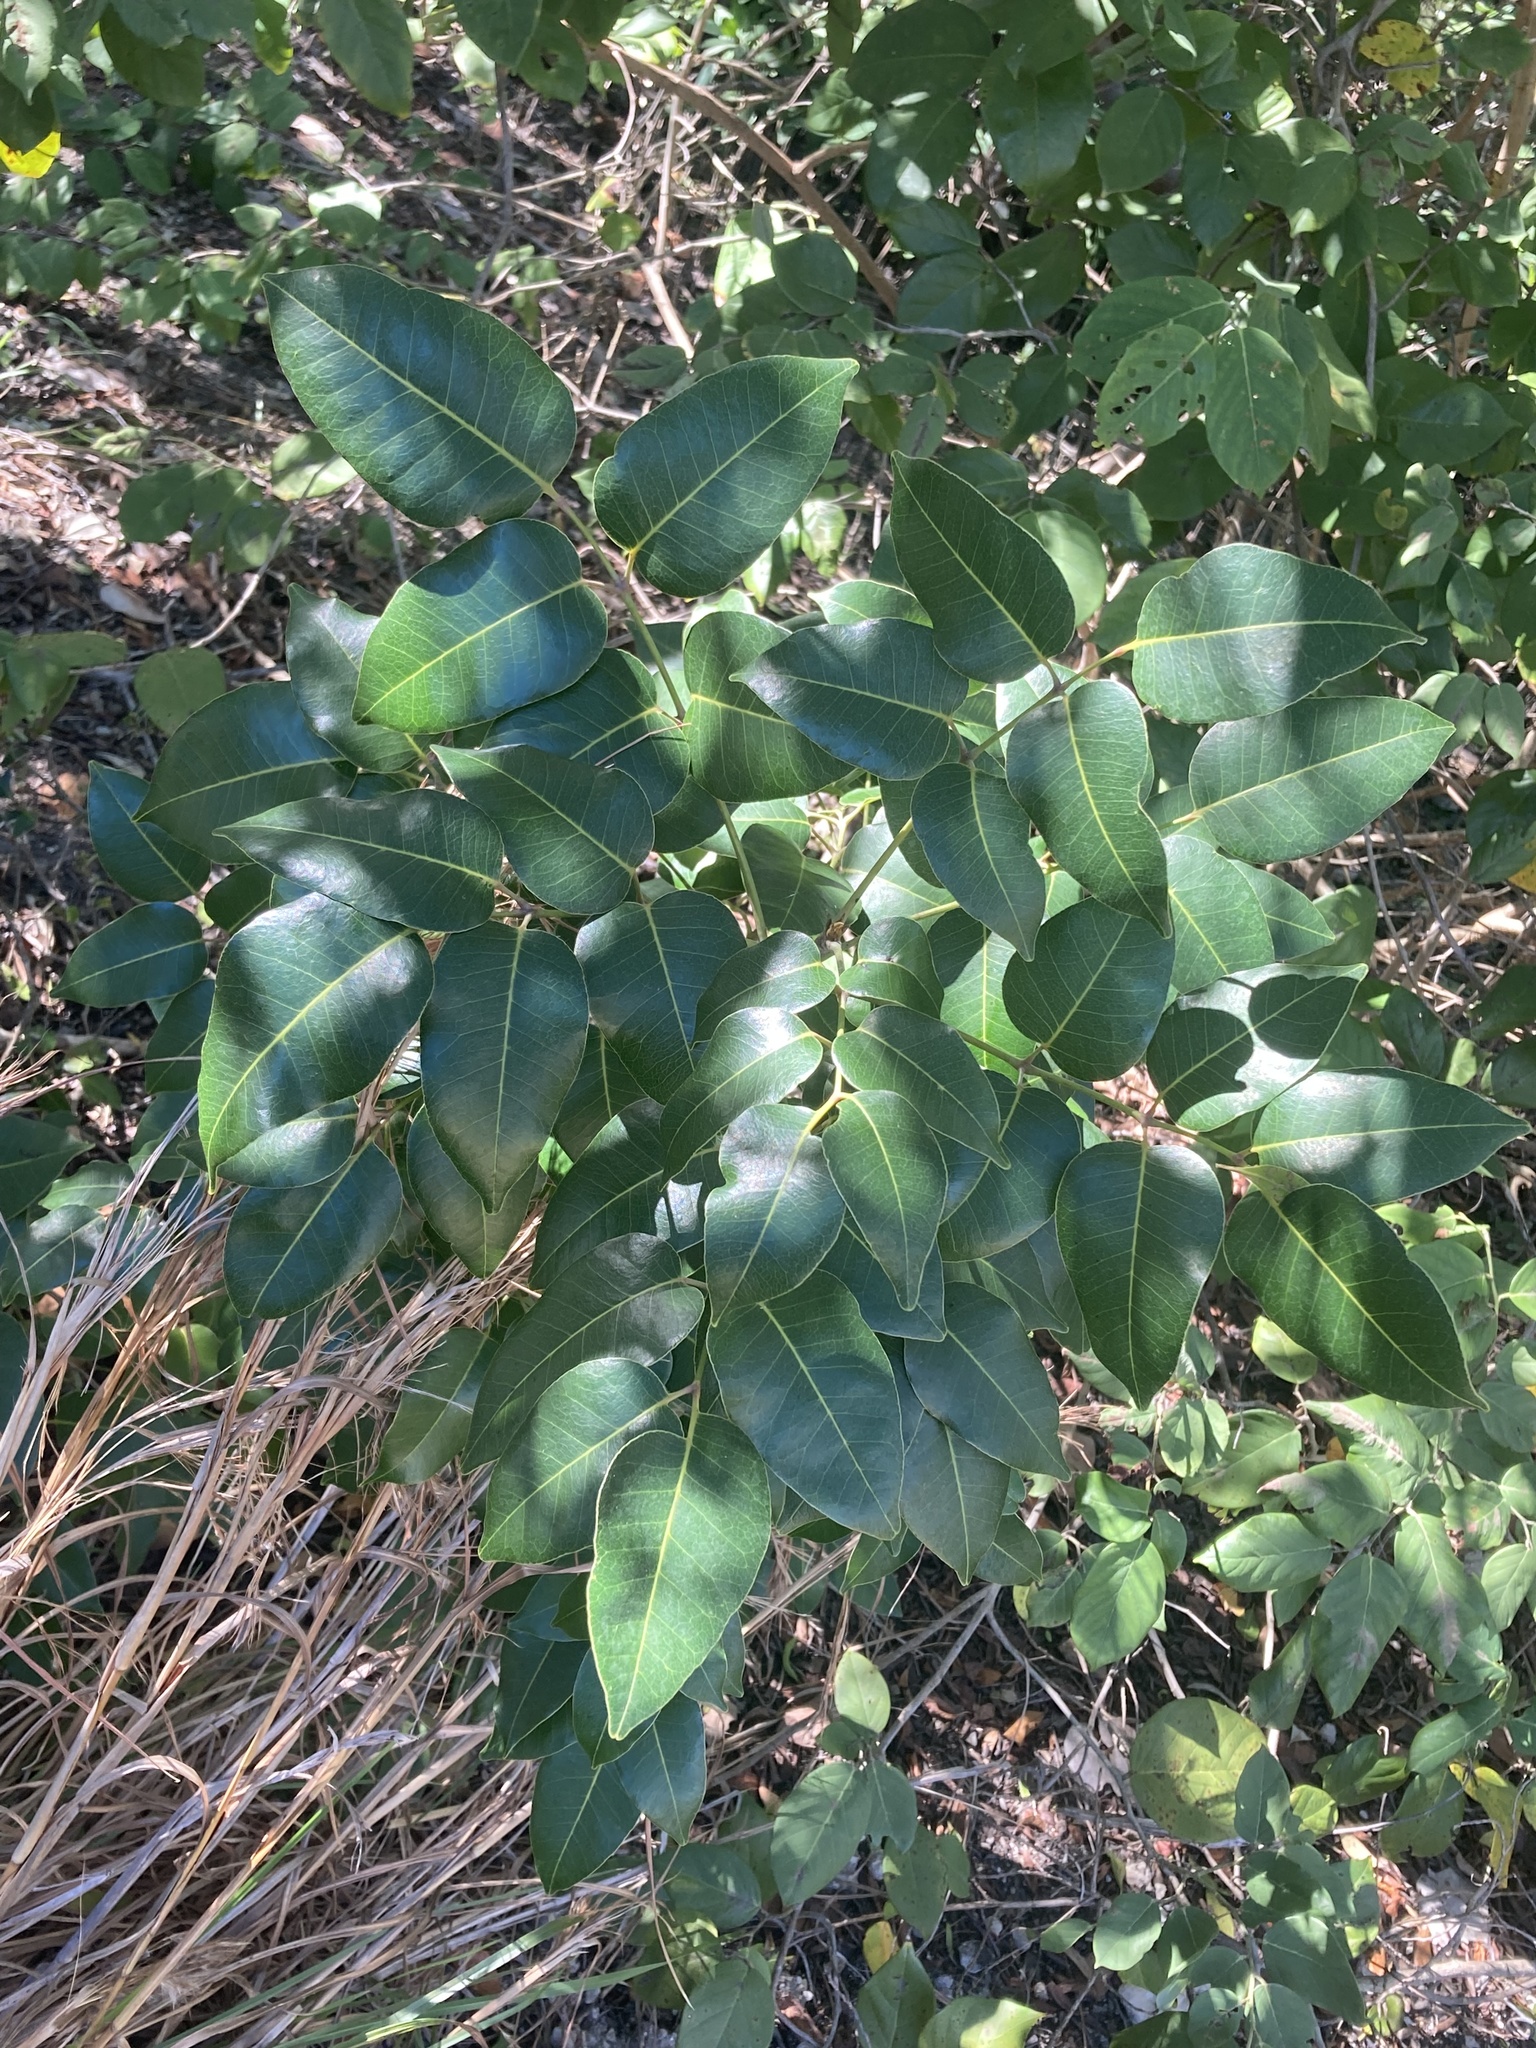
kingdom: Plantae
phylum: Tracheophyta
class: Magnoliopsida
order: Sapindales
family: Anacardiaceae
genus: Metopium
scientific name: Metopium toxiferum
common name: Florida poisontree
